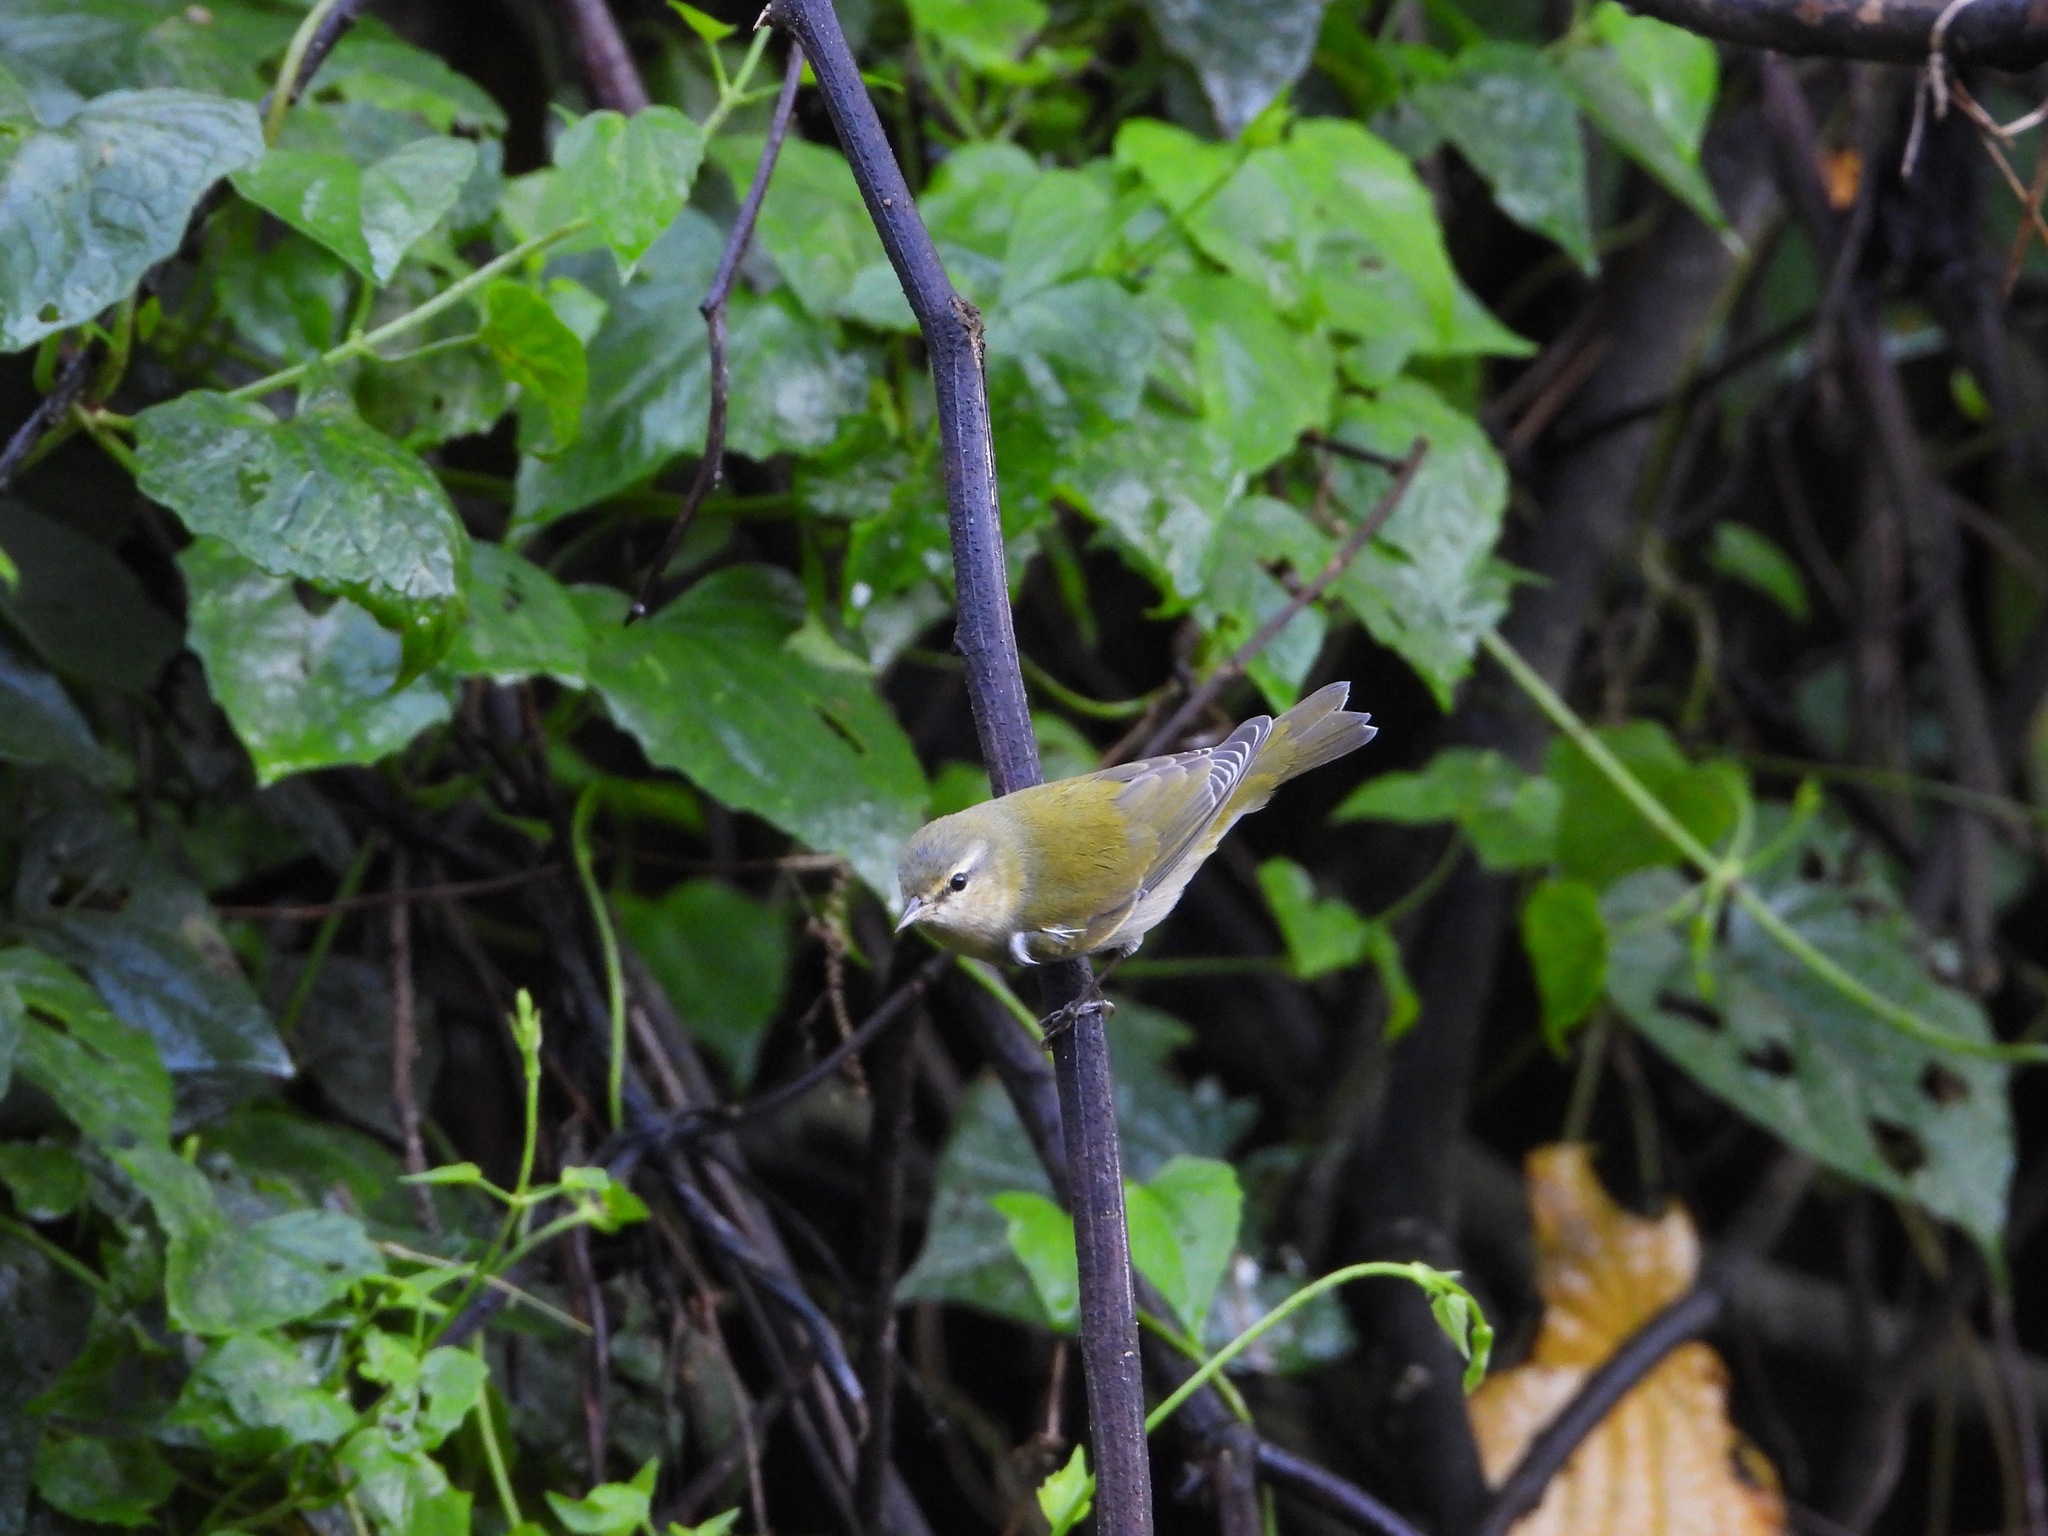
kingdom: Animalia
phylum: Chordata
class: Aves
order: Passeriformes
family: Parulidae
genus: Leiothlypis
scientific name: Leiothlypis peregrina
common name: Tennessee warbler
